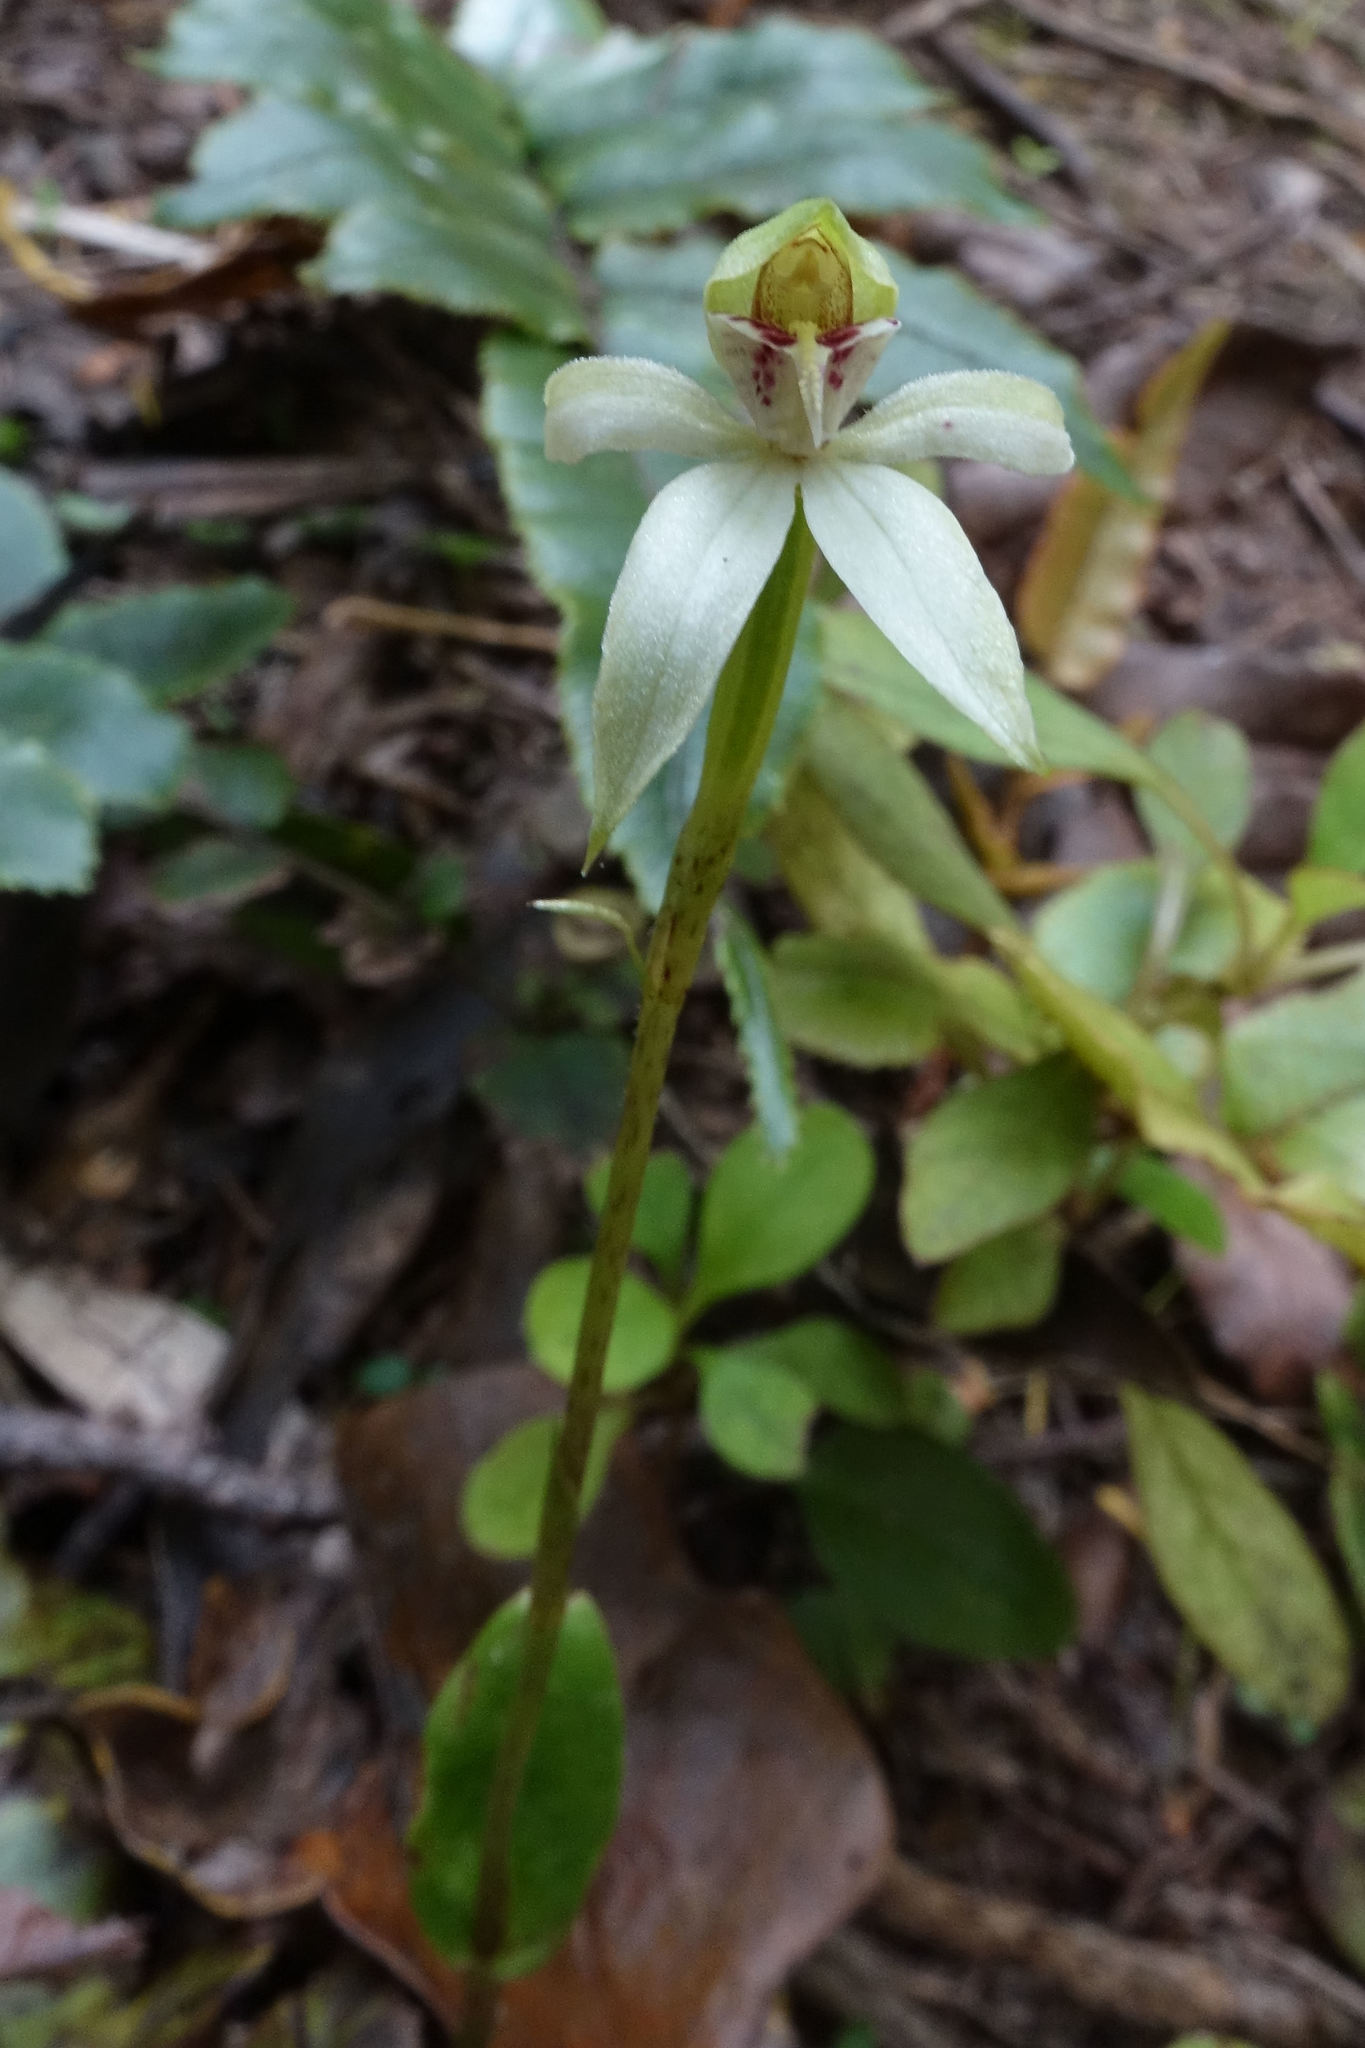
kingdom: Plantae
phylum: Tracheophyta
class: Liliopsida
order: Asparagales
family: Orchidaceae
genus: Adenochilus
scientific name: Adenochilus gracilis
